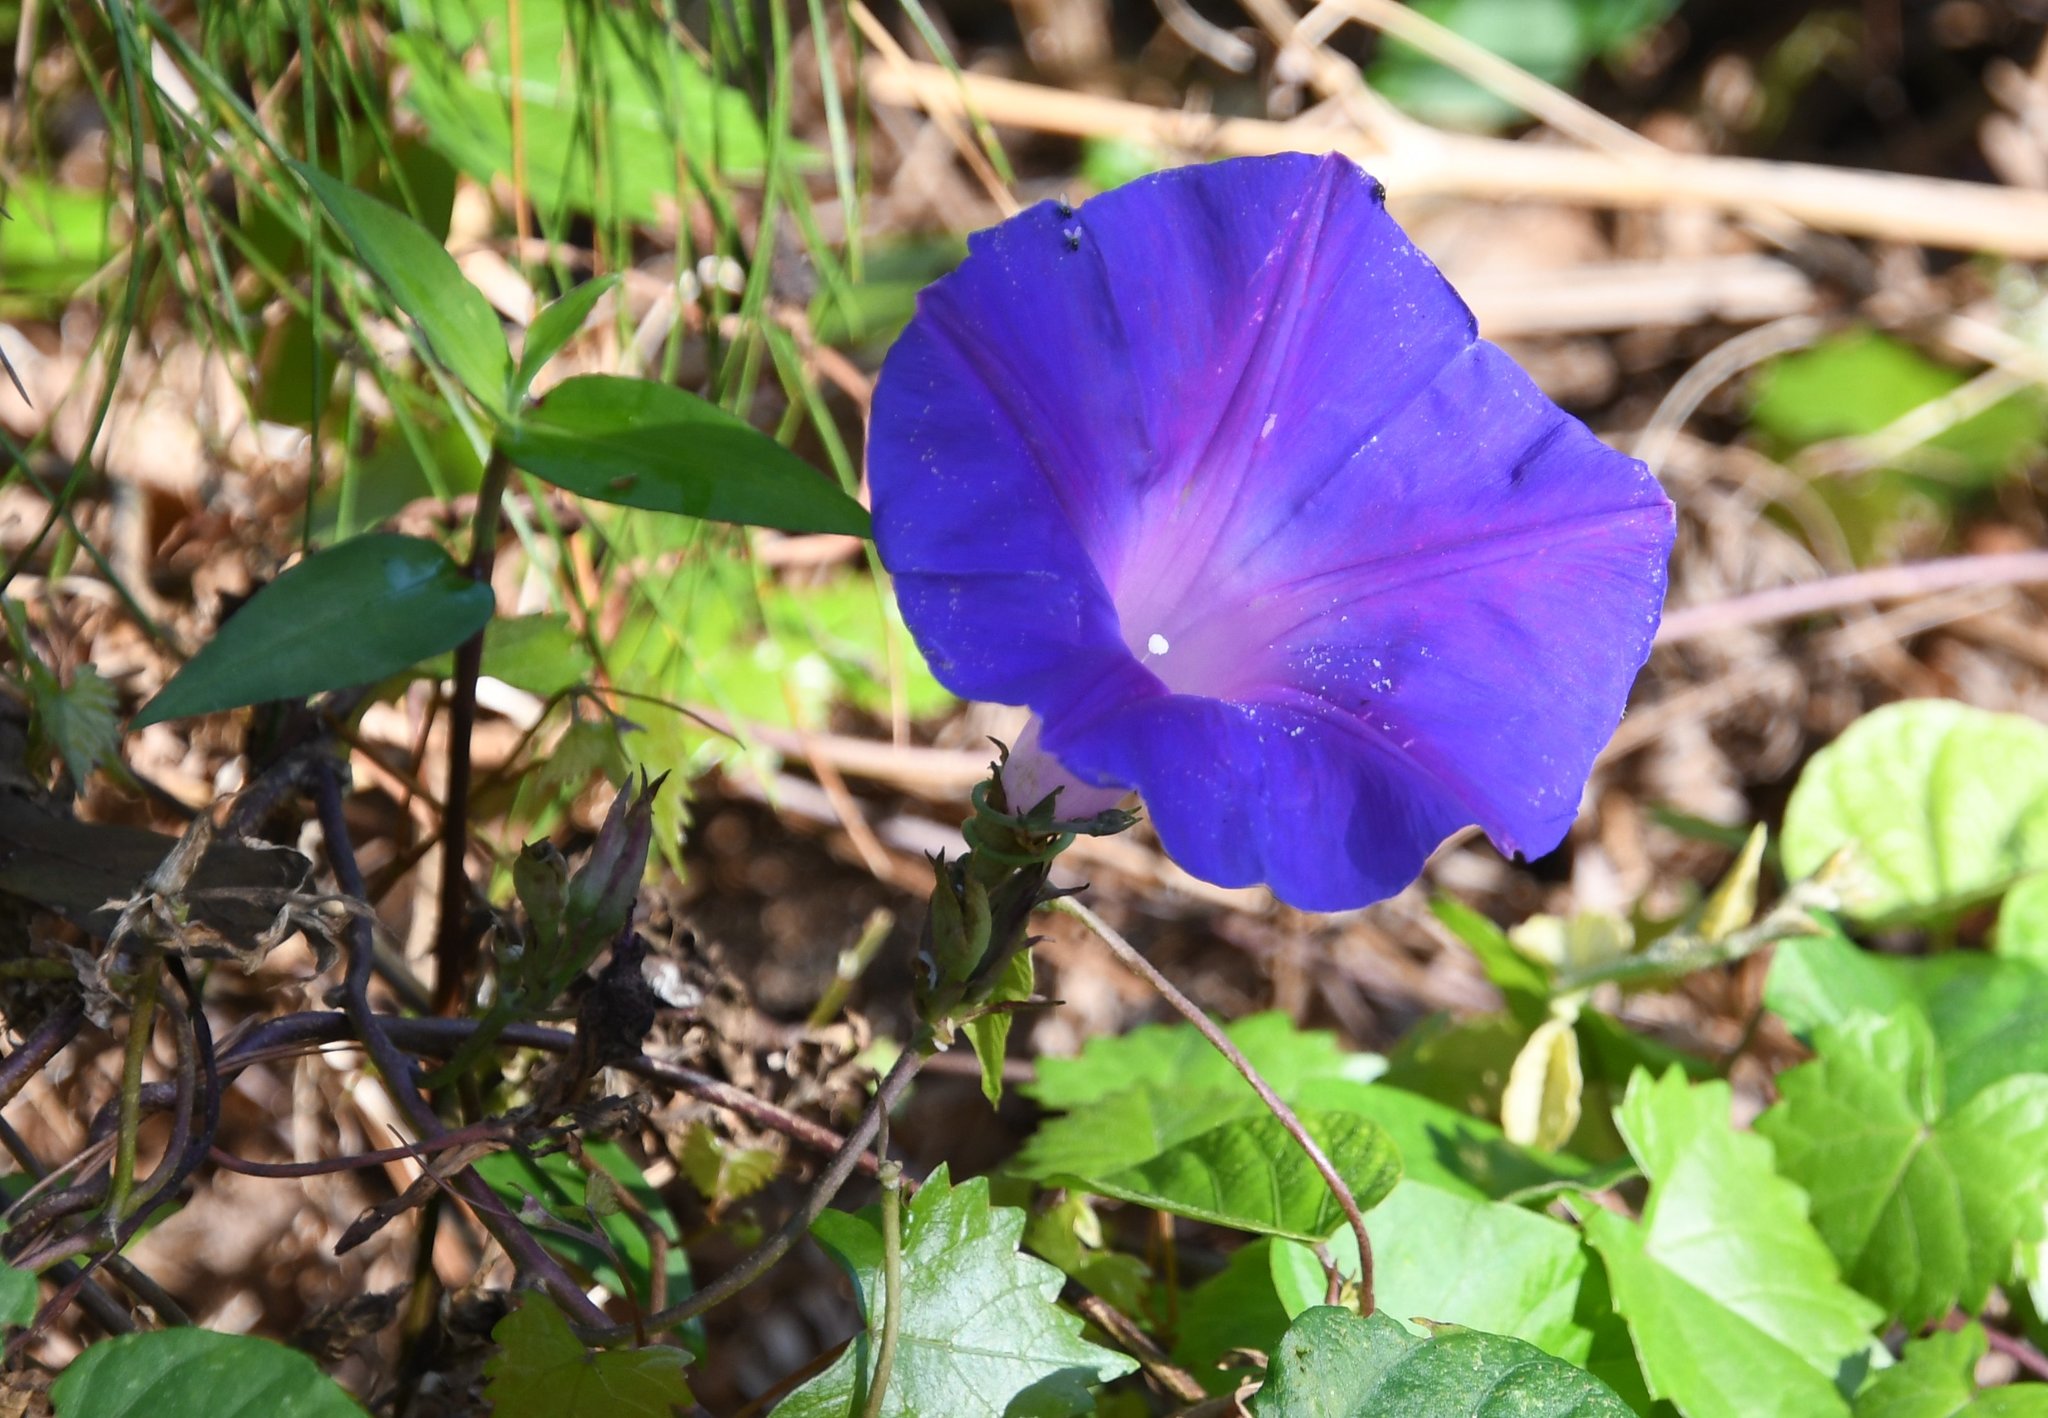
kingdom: Plantae
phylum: Tracheophyta
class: Magnoliopsida
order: Solanales
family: Convolvulaceae
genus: Ipomoea
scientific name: Ipomoea indica
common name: Blue dawnflower
